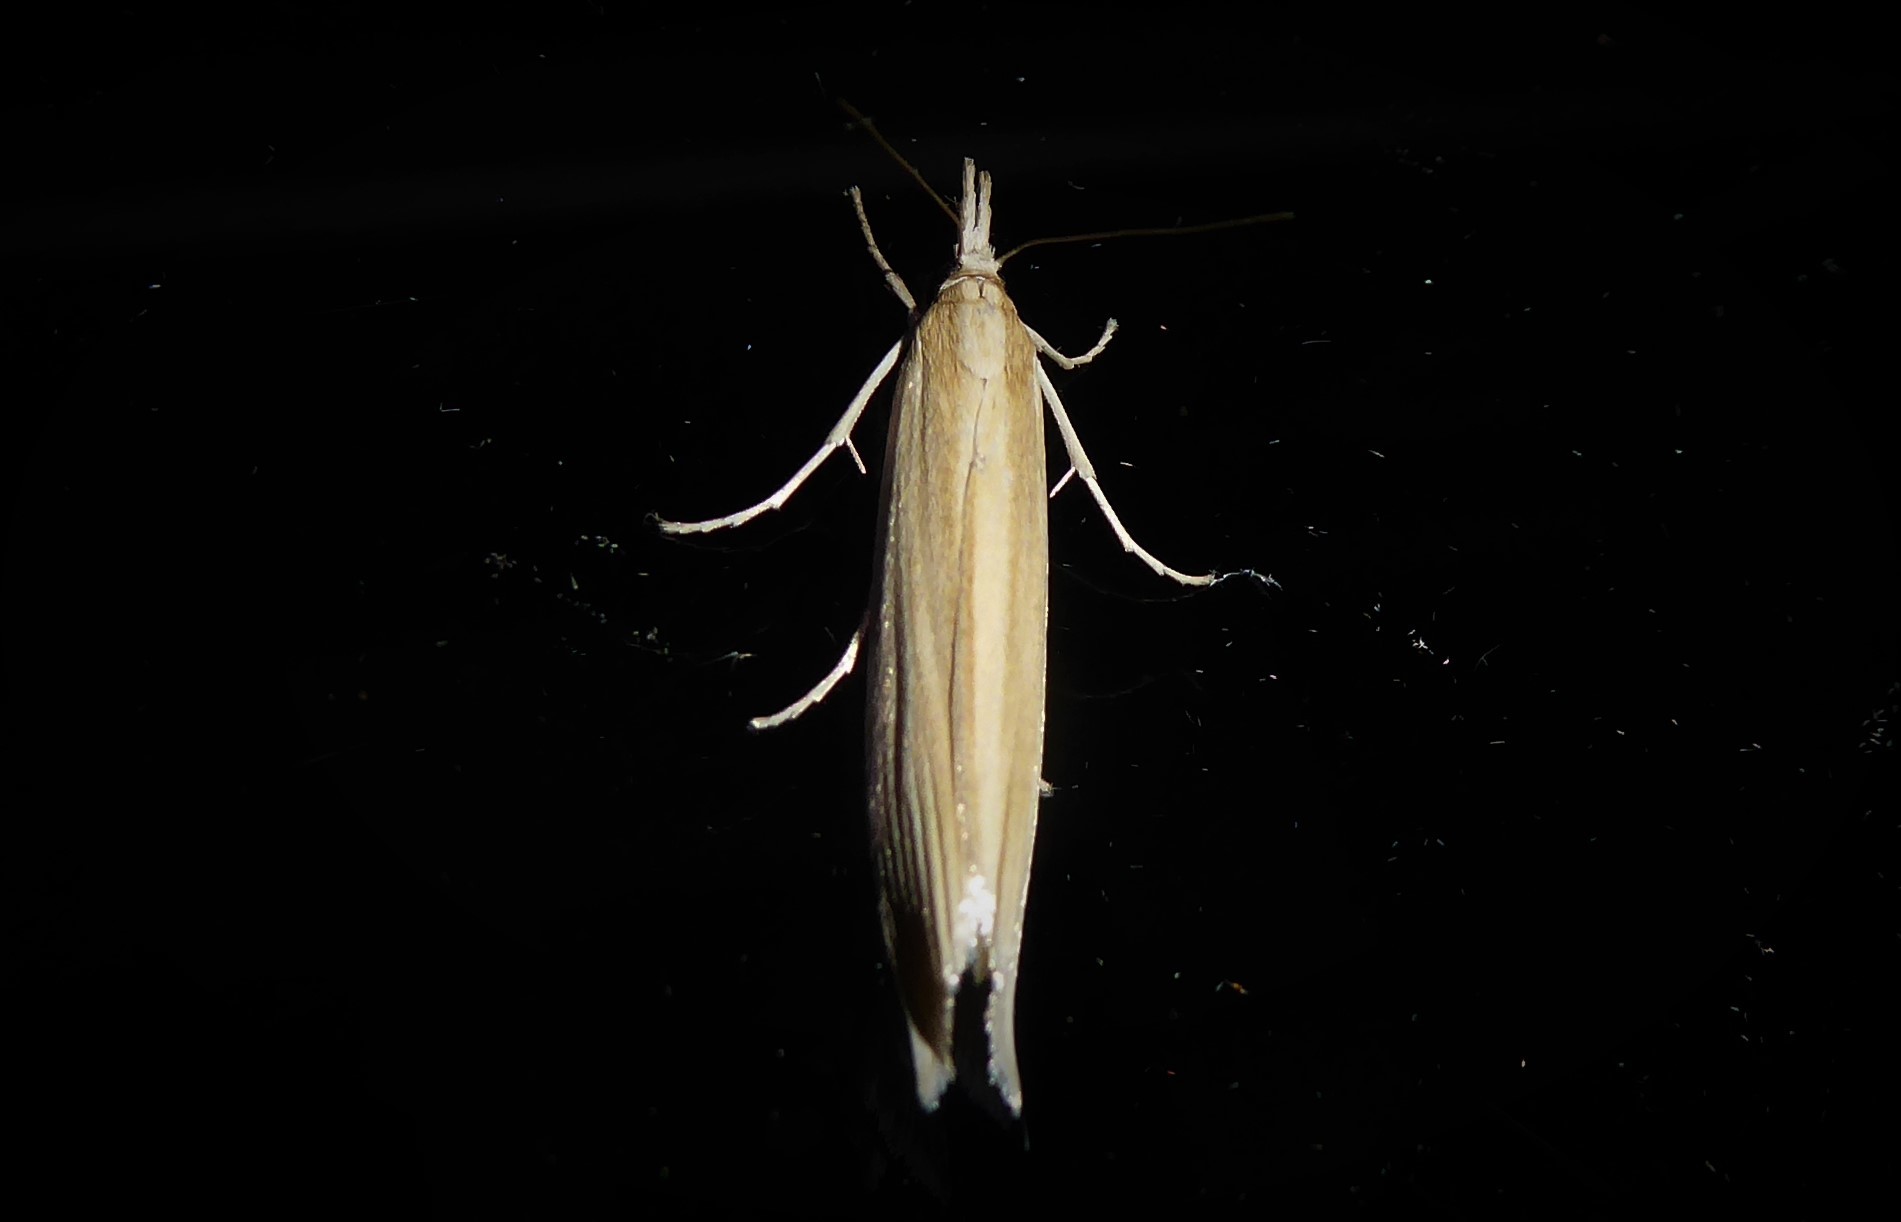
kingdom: Animalia
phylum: Arthropoda
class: Insecta
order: Lepidoptera
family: Crambidae
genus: Orocrambus
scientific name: Orocrambus angustipennis
